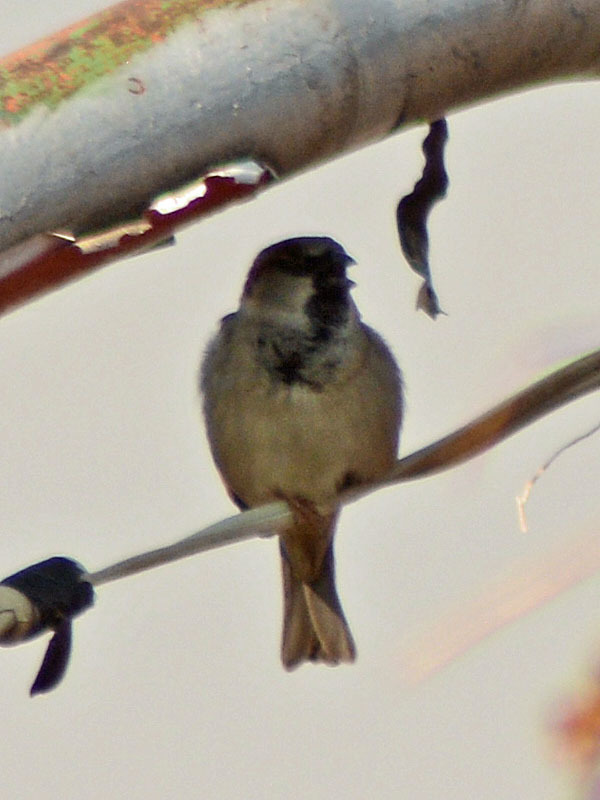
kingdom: Animalia
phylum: Chordata
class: Aves
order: Passeriformes
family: Passeridae
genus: Passer
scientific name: Passer domesticus
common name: House sparrow
